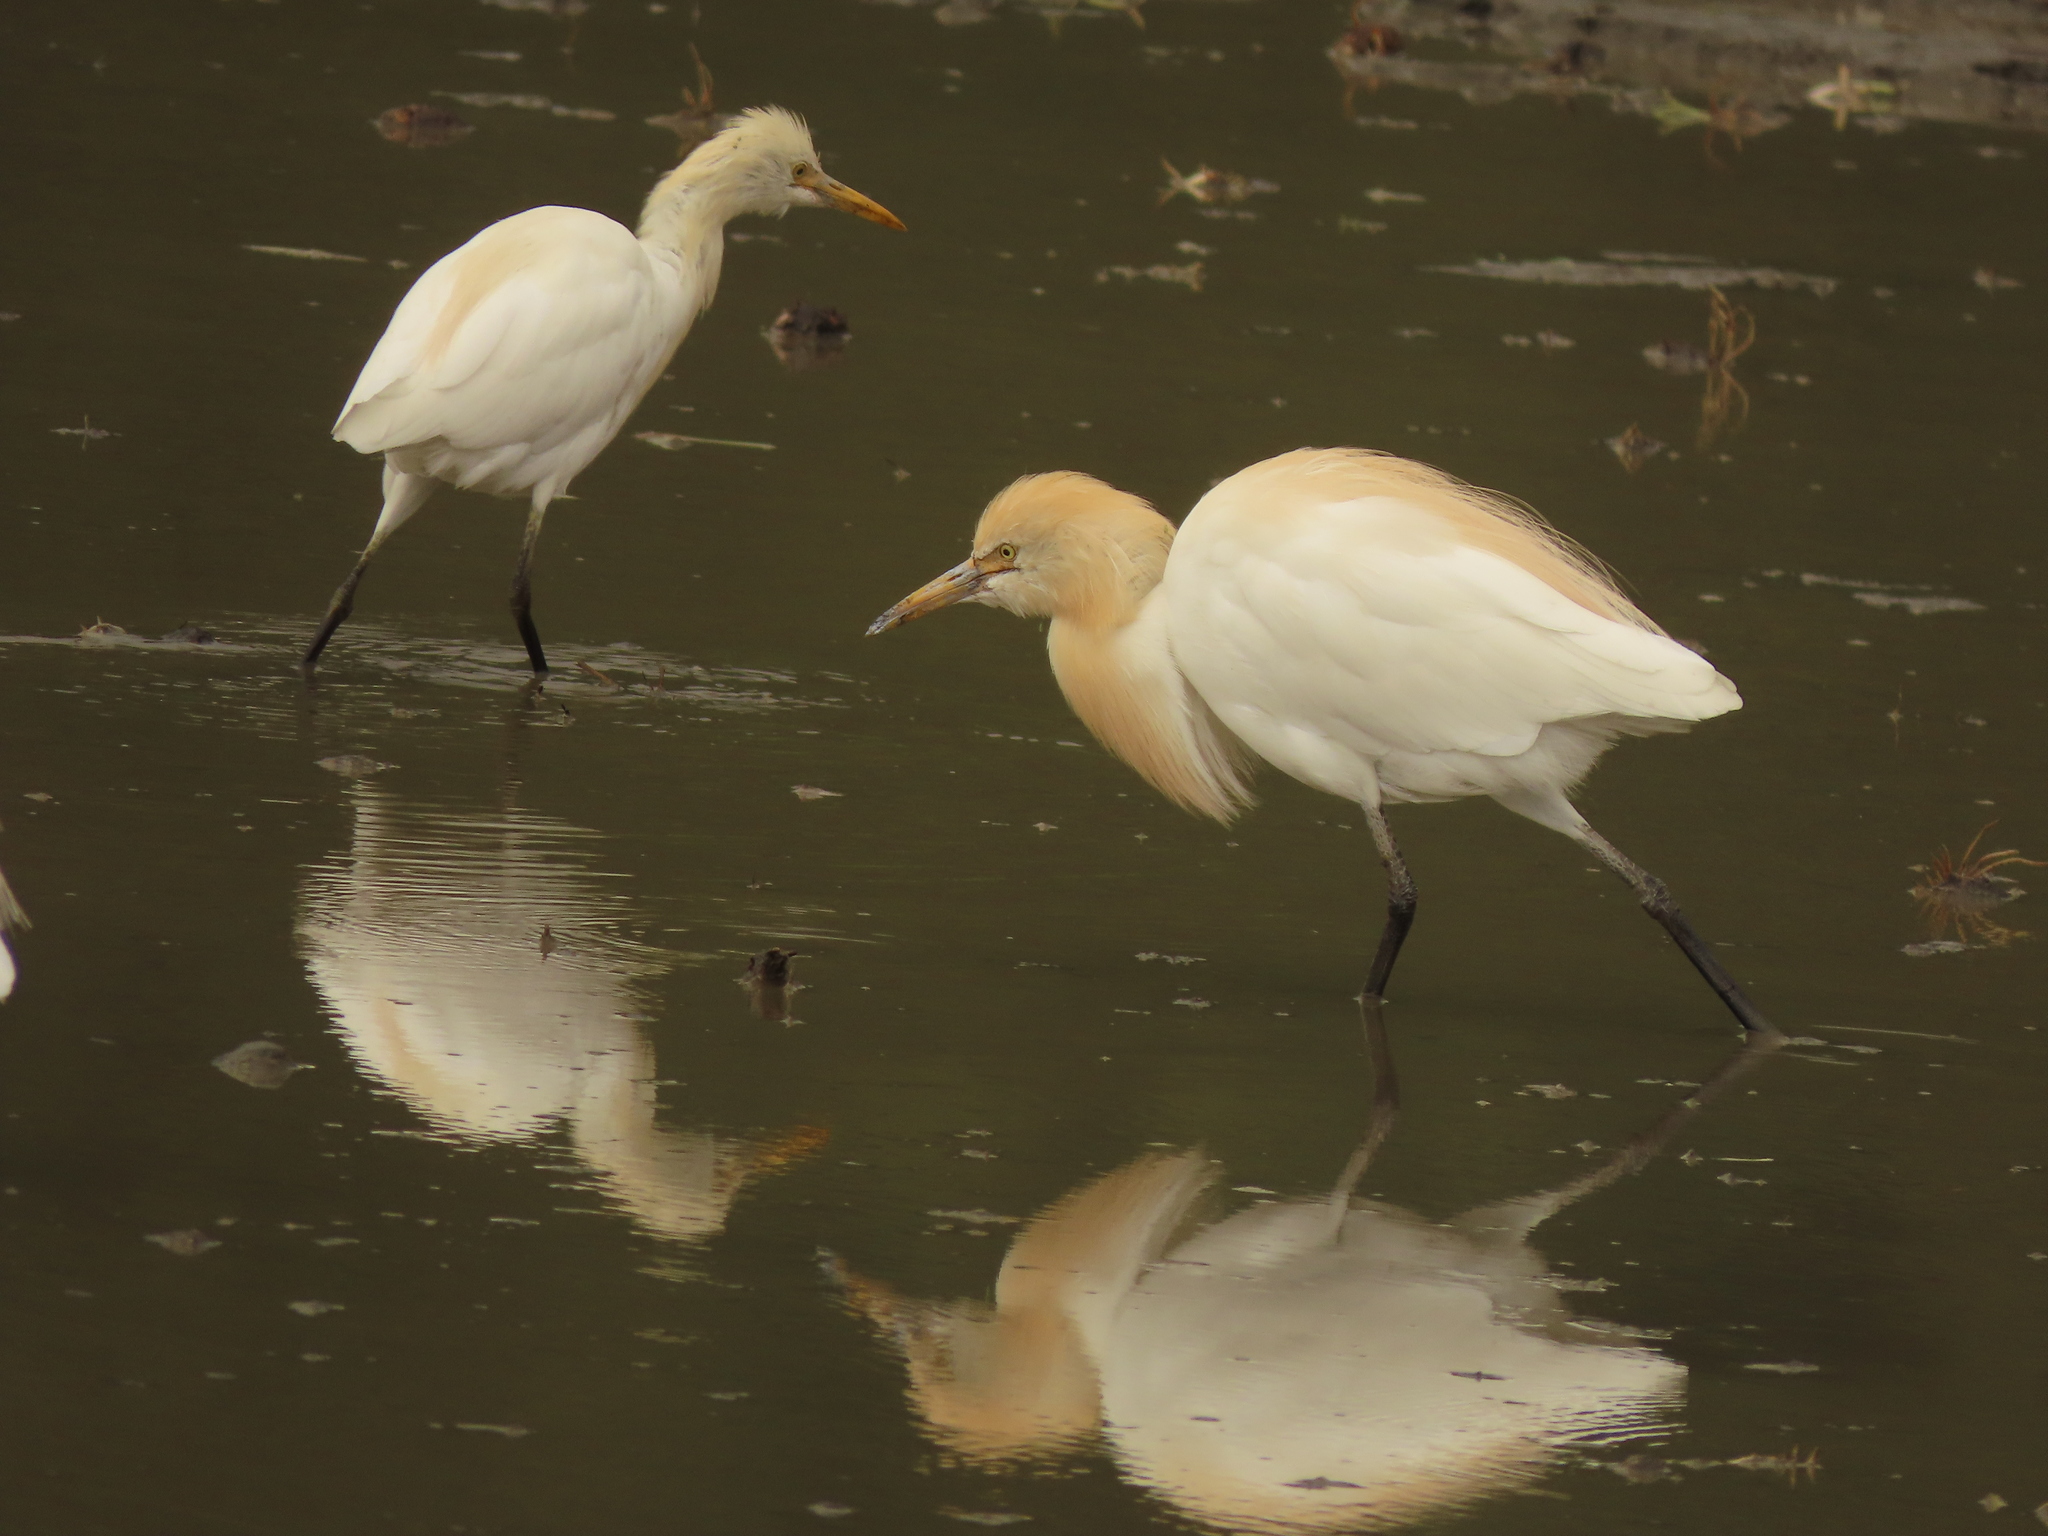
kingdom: Animalia
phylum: Chordata
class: Aves
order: Pelecaniformes
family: Ardeidae
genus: Bubulcus
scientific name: Bubulcus coromandus
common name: Eastern cattle egret
